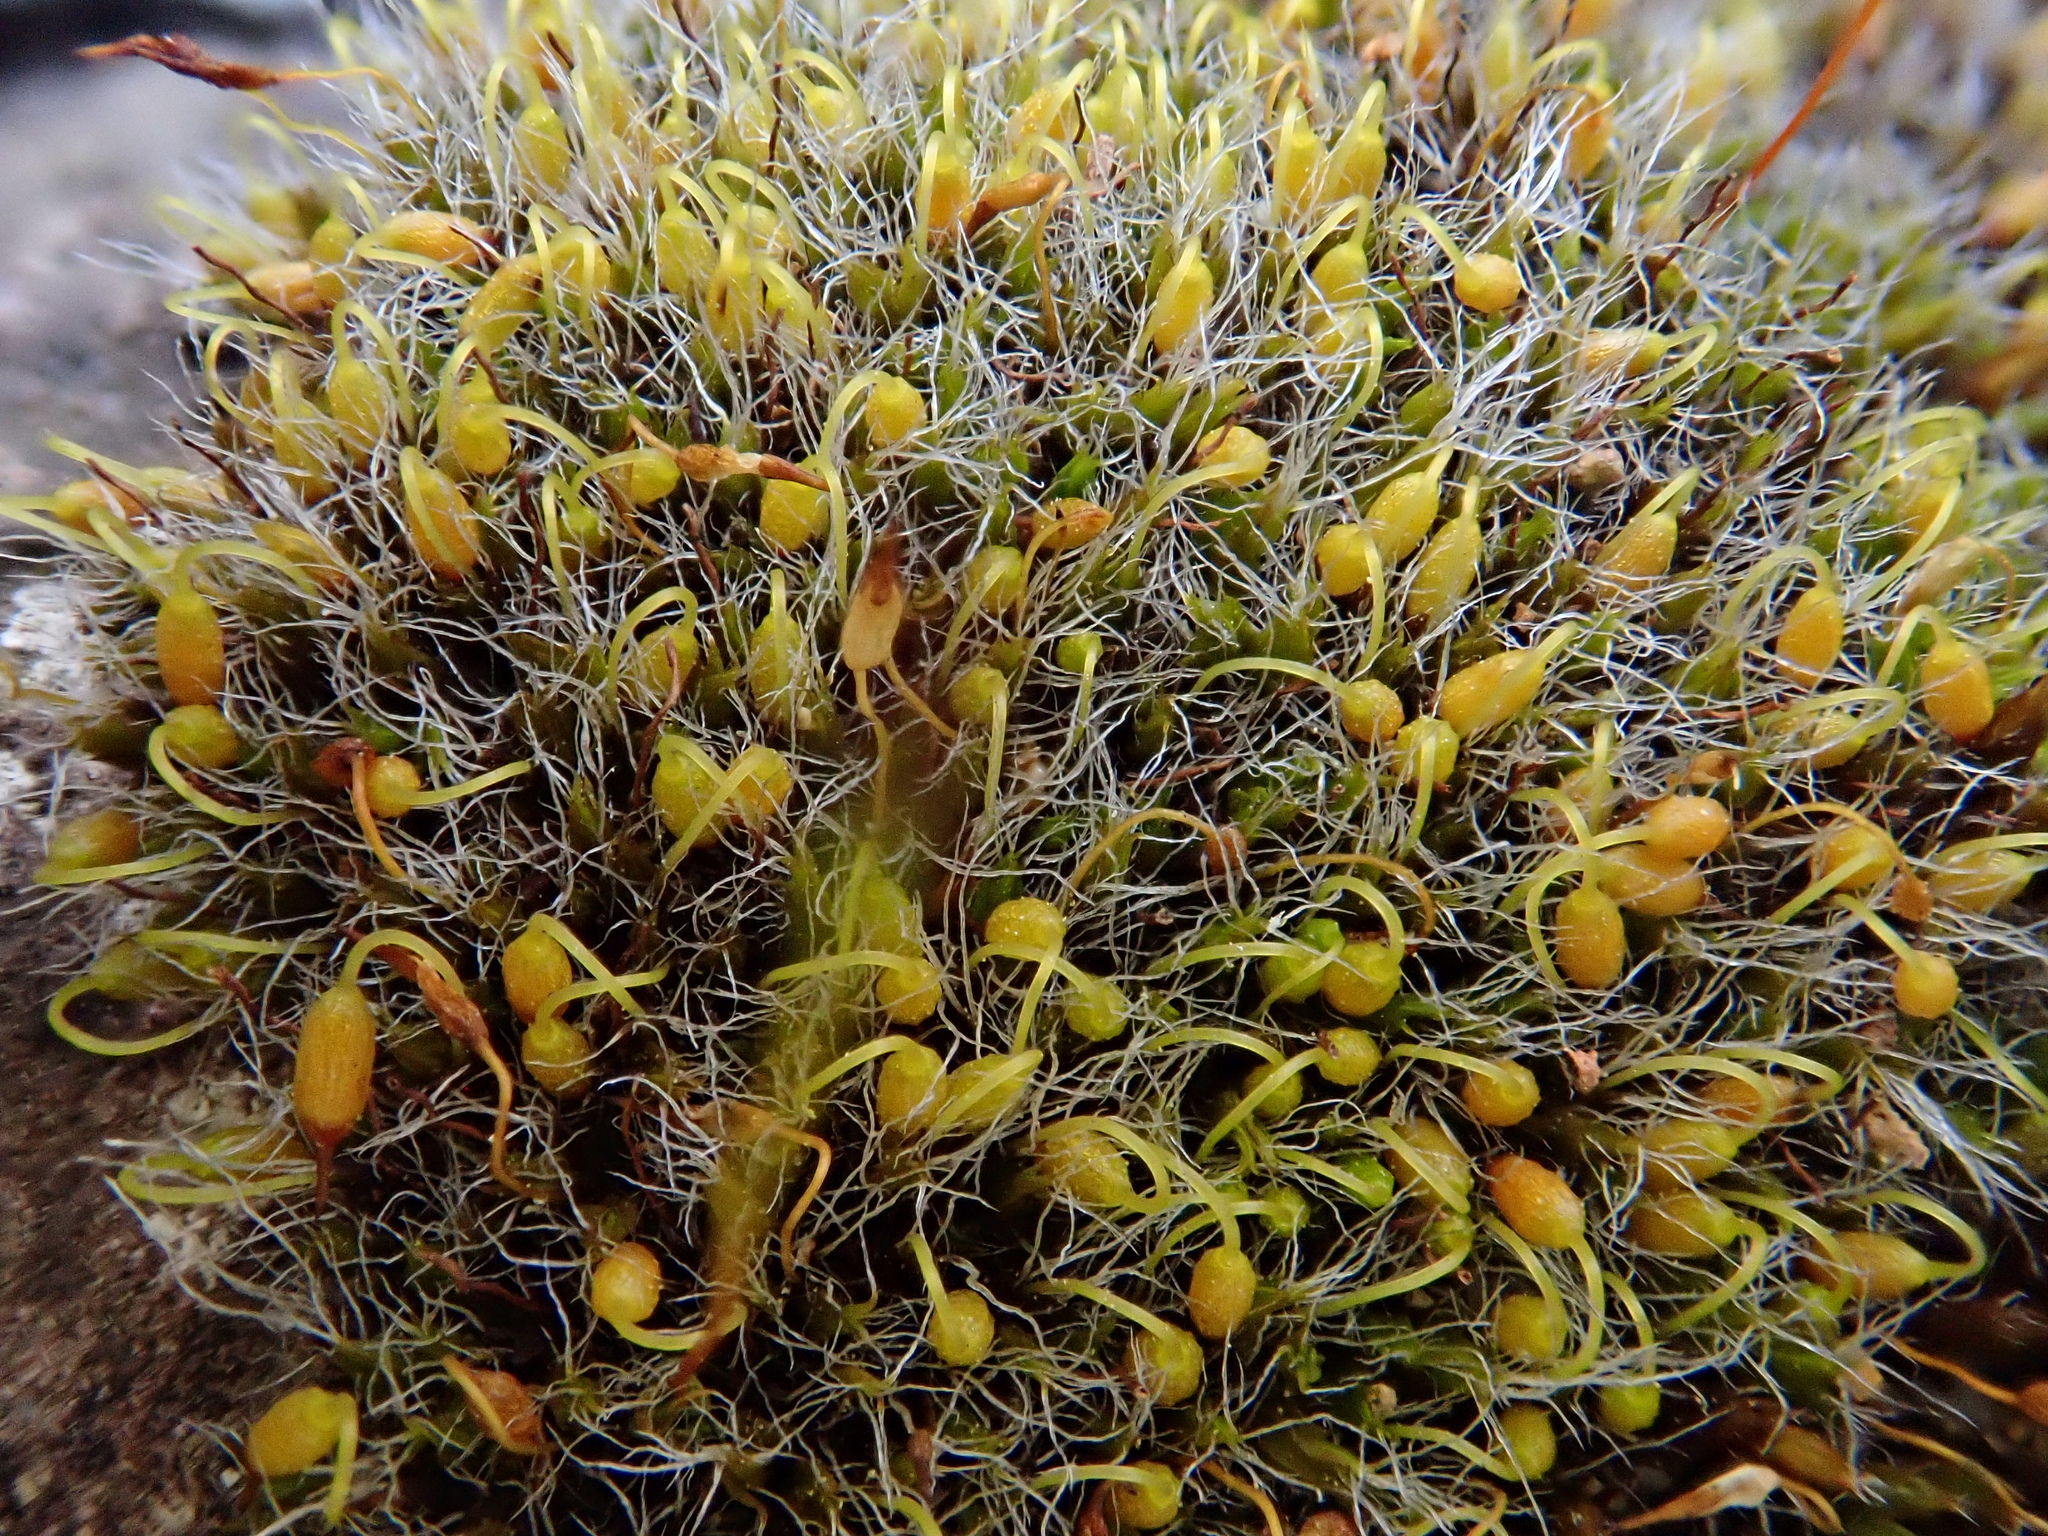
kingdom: Plantae
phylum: Bryophyta
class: Bryopsida
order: Grimmiales
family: Grimmiaceae
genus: Grimmia
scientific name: Grimmia pulvinata
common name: Grey-cushioned grimmia
